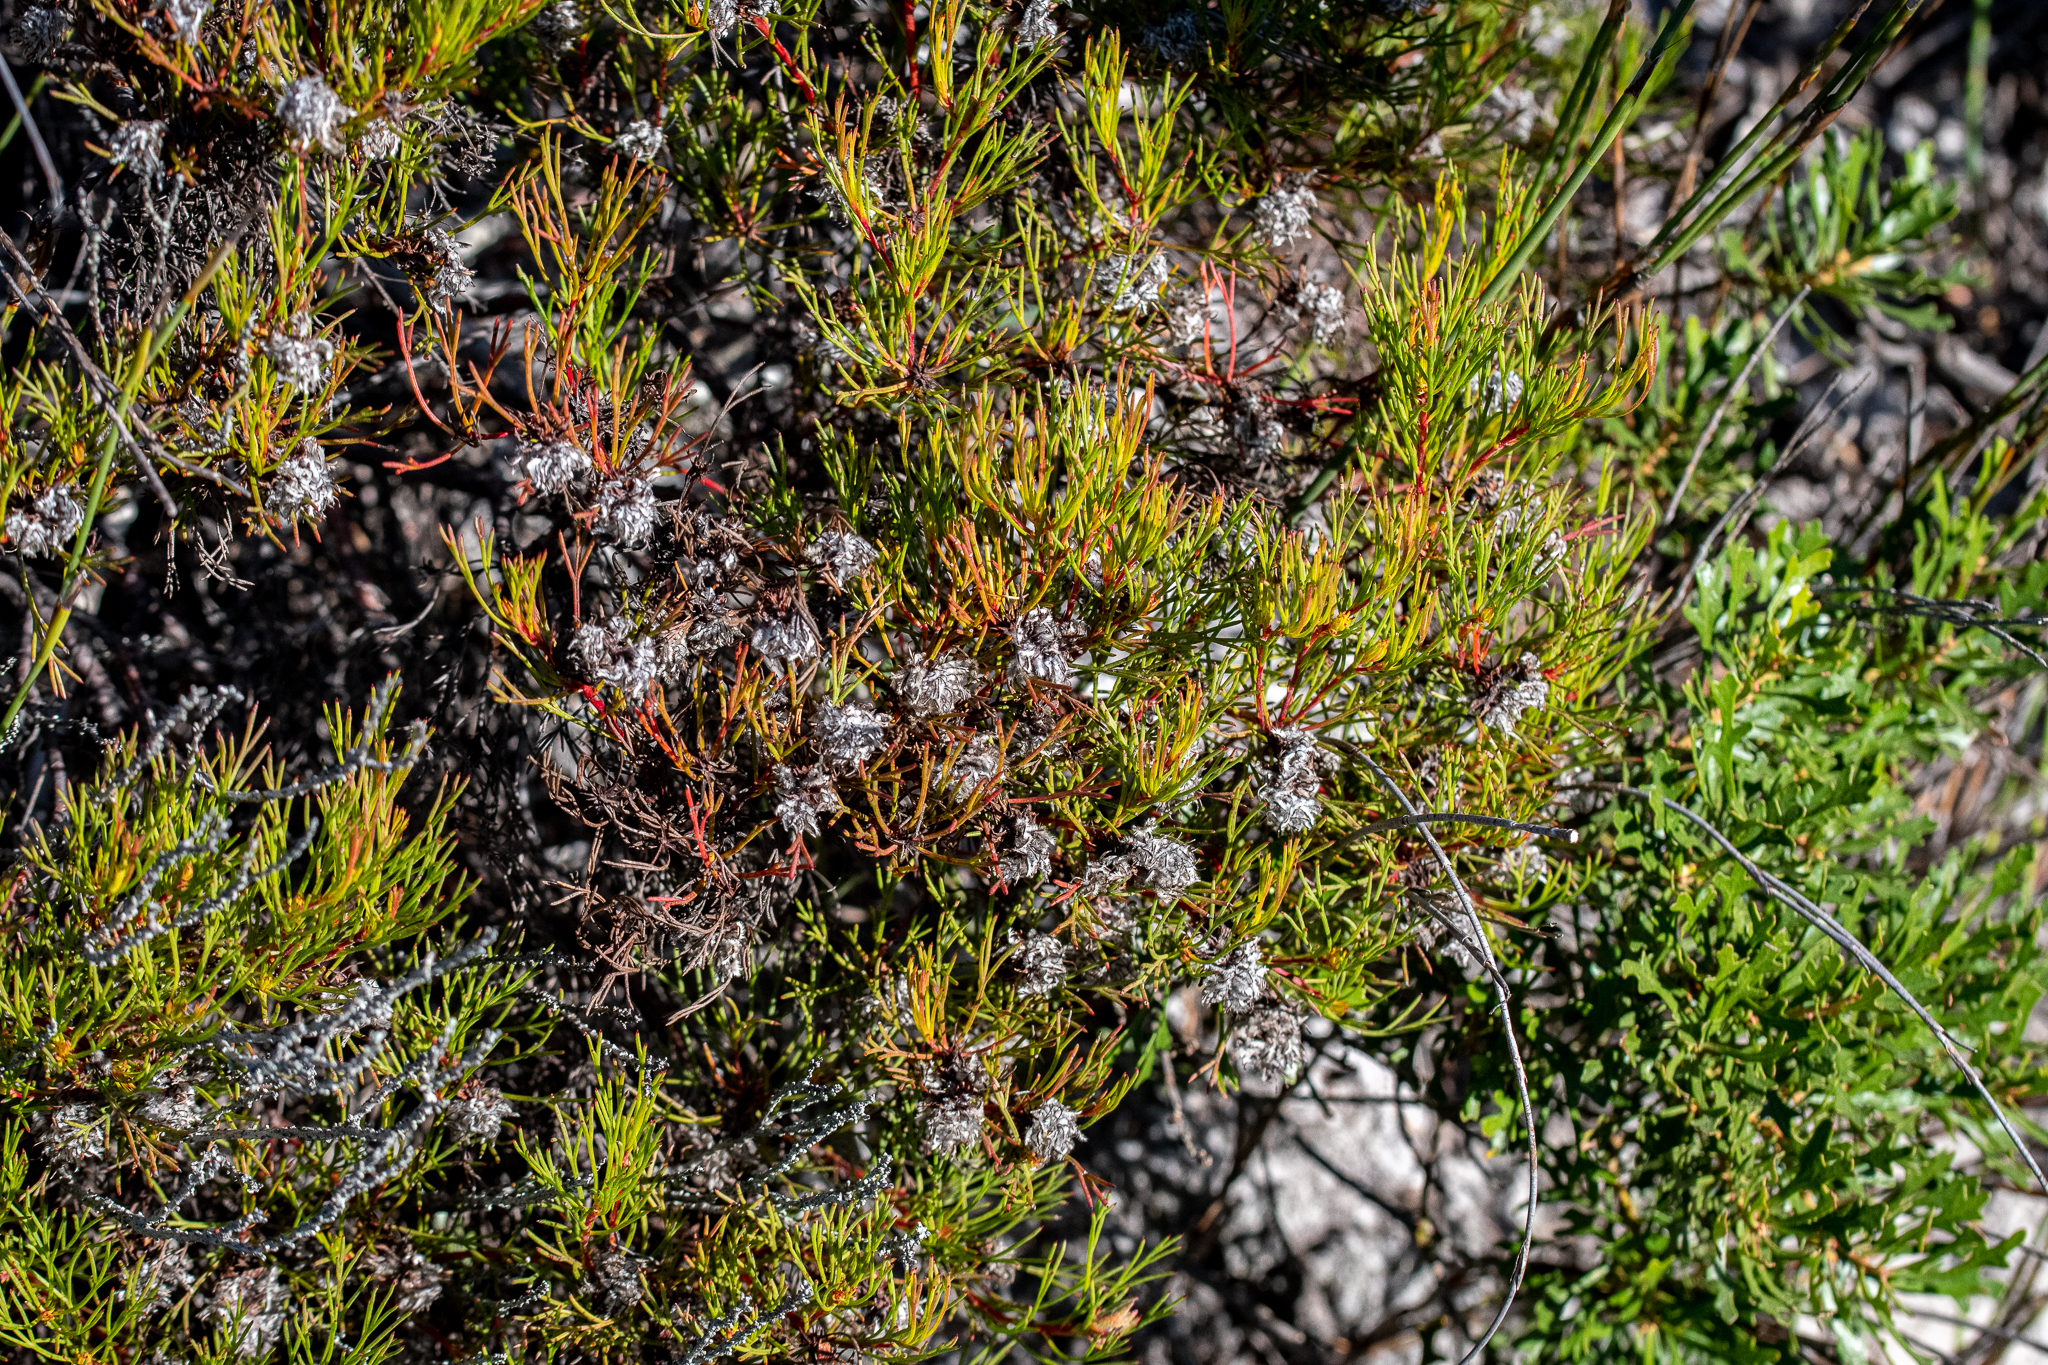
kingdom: Plantae
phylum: Tracheophyta
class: Magnoliopsida
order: Proteales
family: Proteaceae
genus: Serruria
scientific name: Serruria nervosa
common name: Fluted spiderhead
